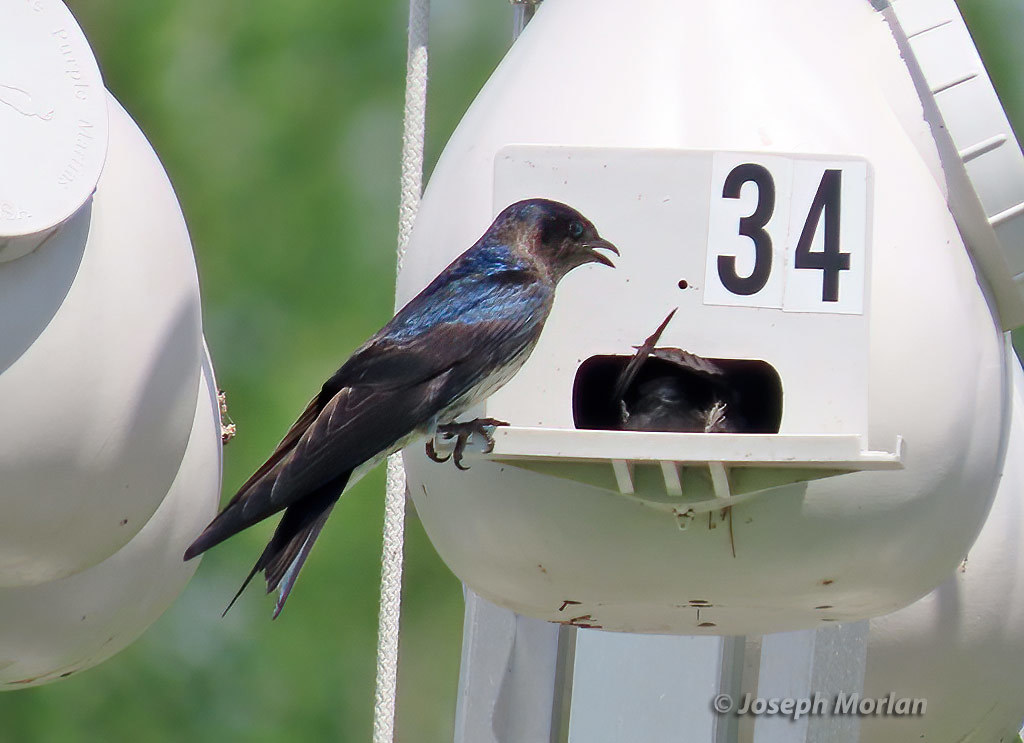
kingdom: Animalia
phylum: Chordata
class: Aves
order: Passeriformes
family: Hirundinidae
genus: Progne
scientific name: Progne subis
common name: Purple martin
